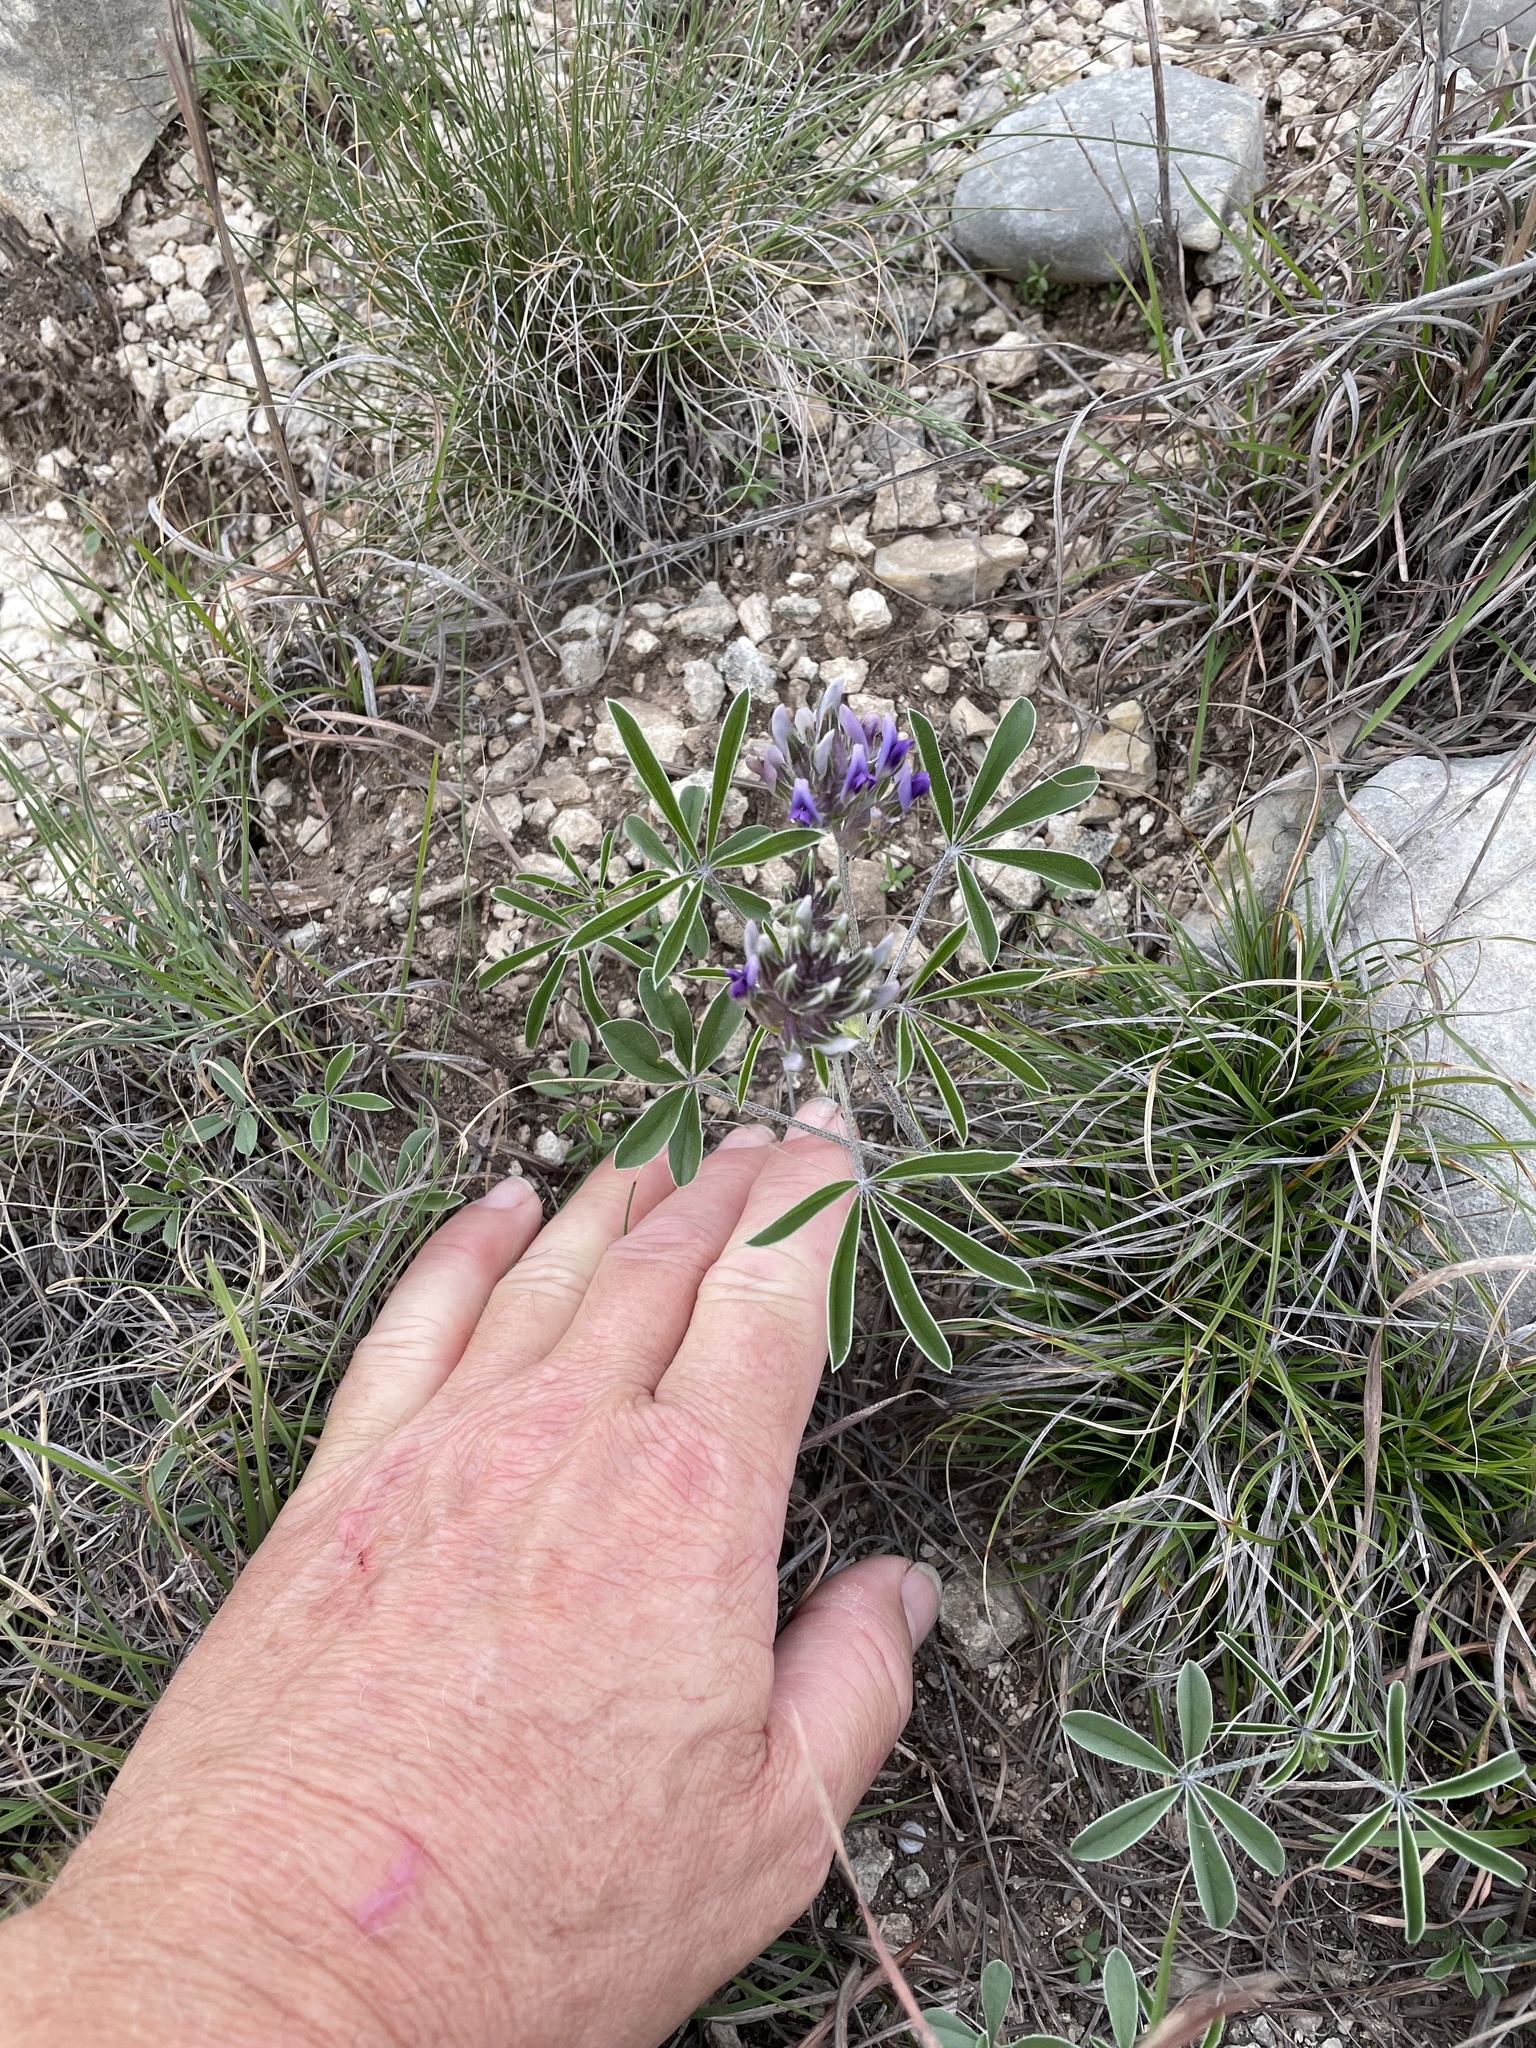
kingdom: Plantae
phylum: Tracheophyta
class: Magnoliopsida
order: Fabales
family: Fabaceae
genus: Pediomelum
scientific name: Pediomelum latestipulatum
